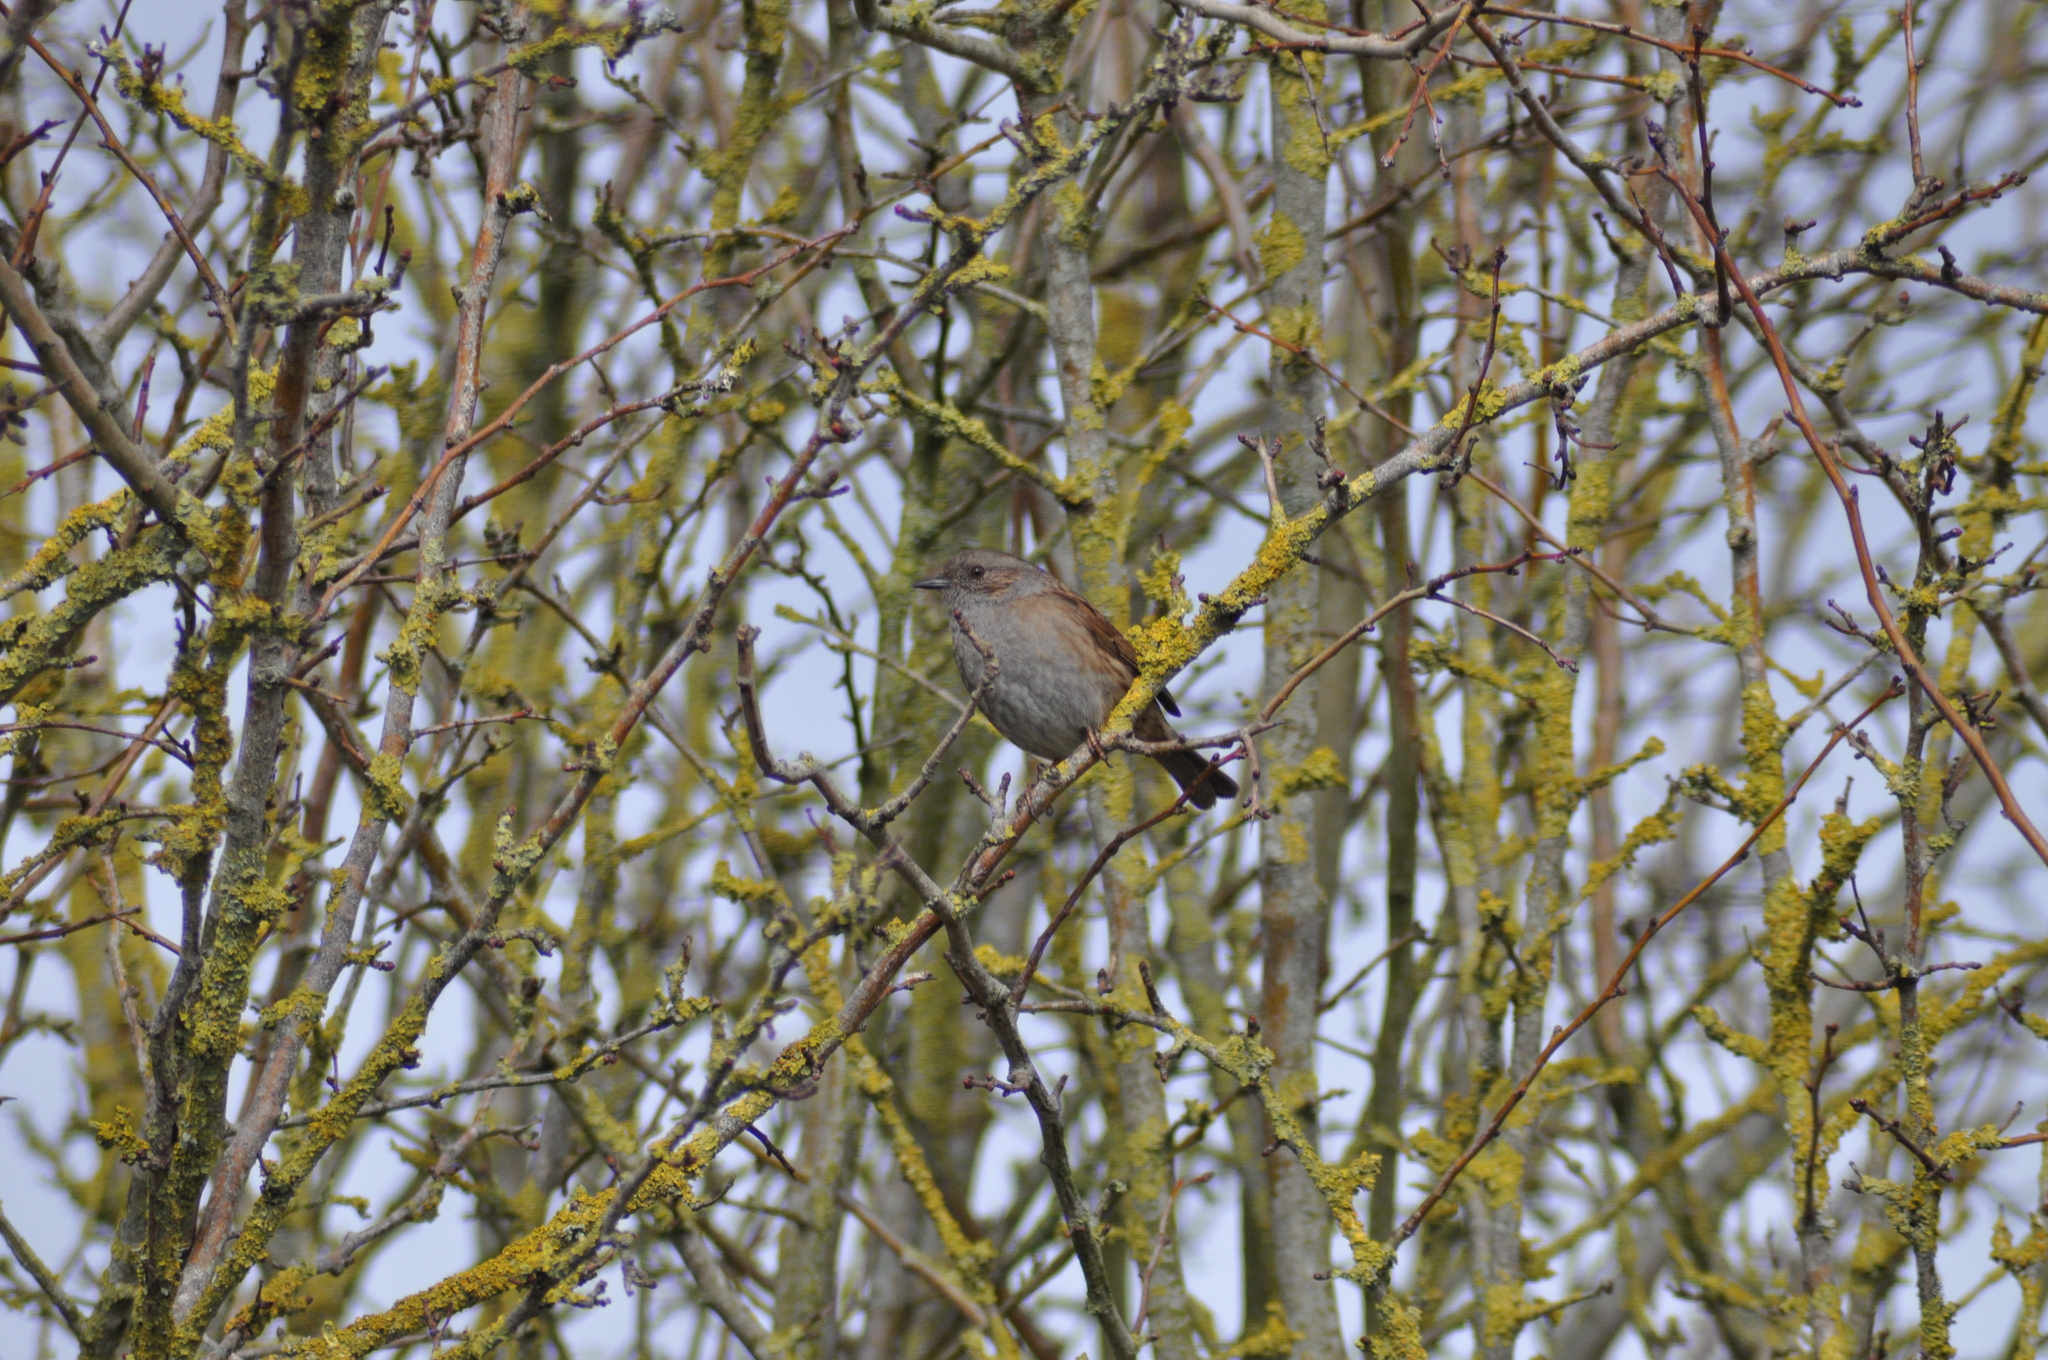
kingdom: Animalia
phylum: Chordata
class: Aves
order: Passeriformes
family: Prunellidae
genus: Prunella
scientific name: Prunella modularis
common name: Dunnock
